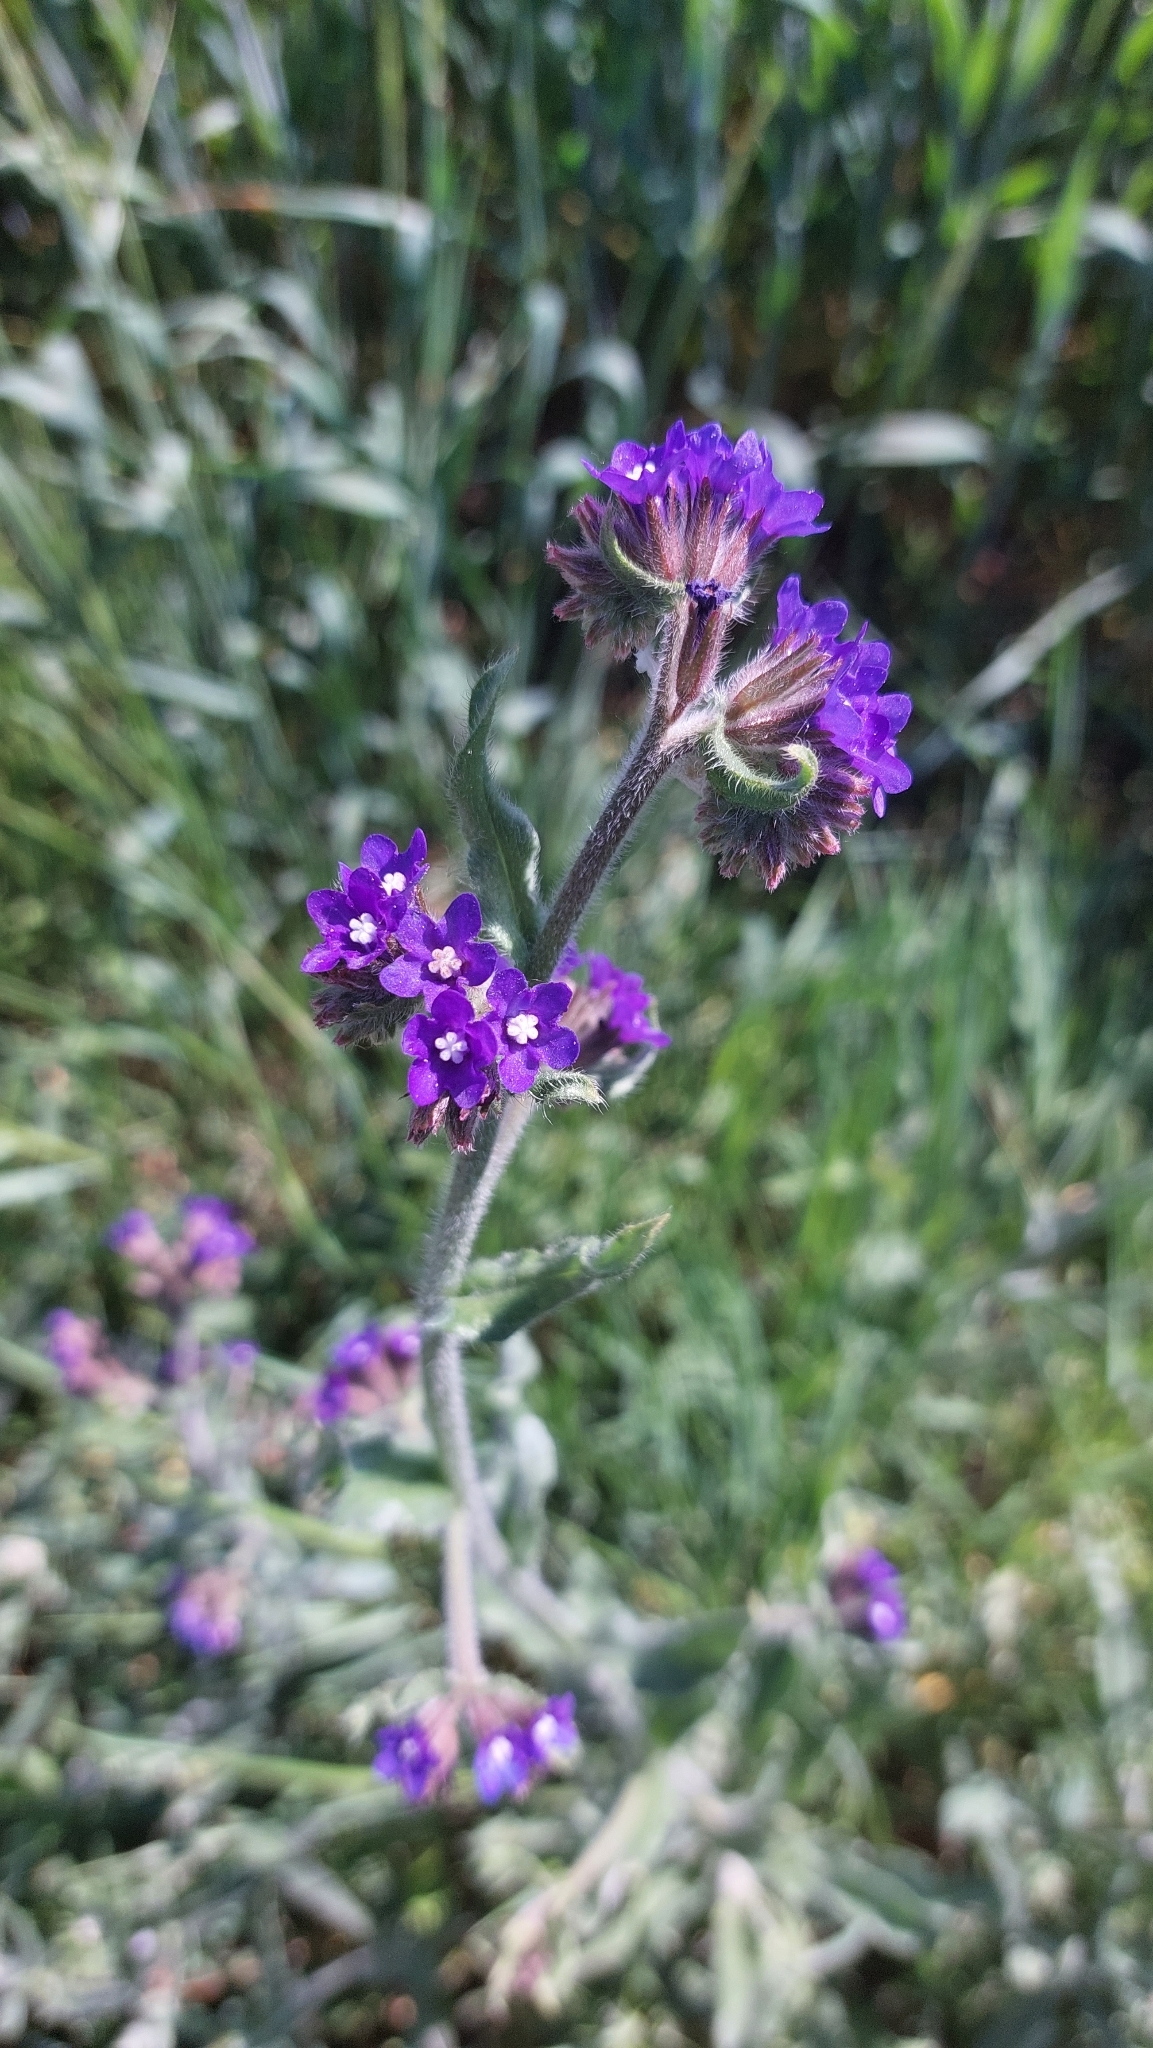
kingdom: Plantae
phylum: Tracheophyta
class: Magnoliopsida
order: Boraginales
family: Boraginaceae
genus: Anchusa
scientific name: Anchusa officinalis
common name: Alkanet
